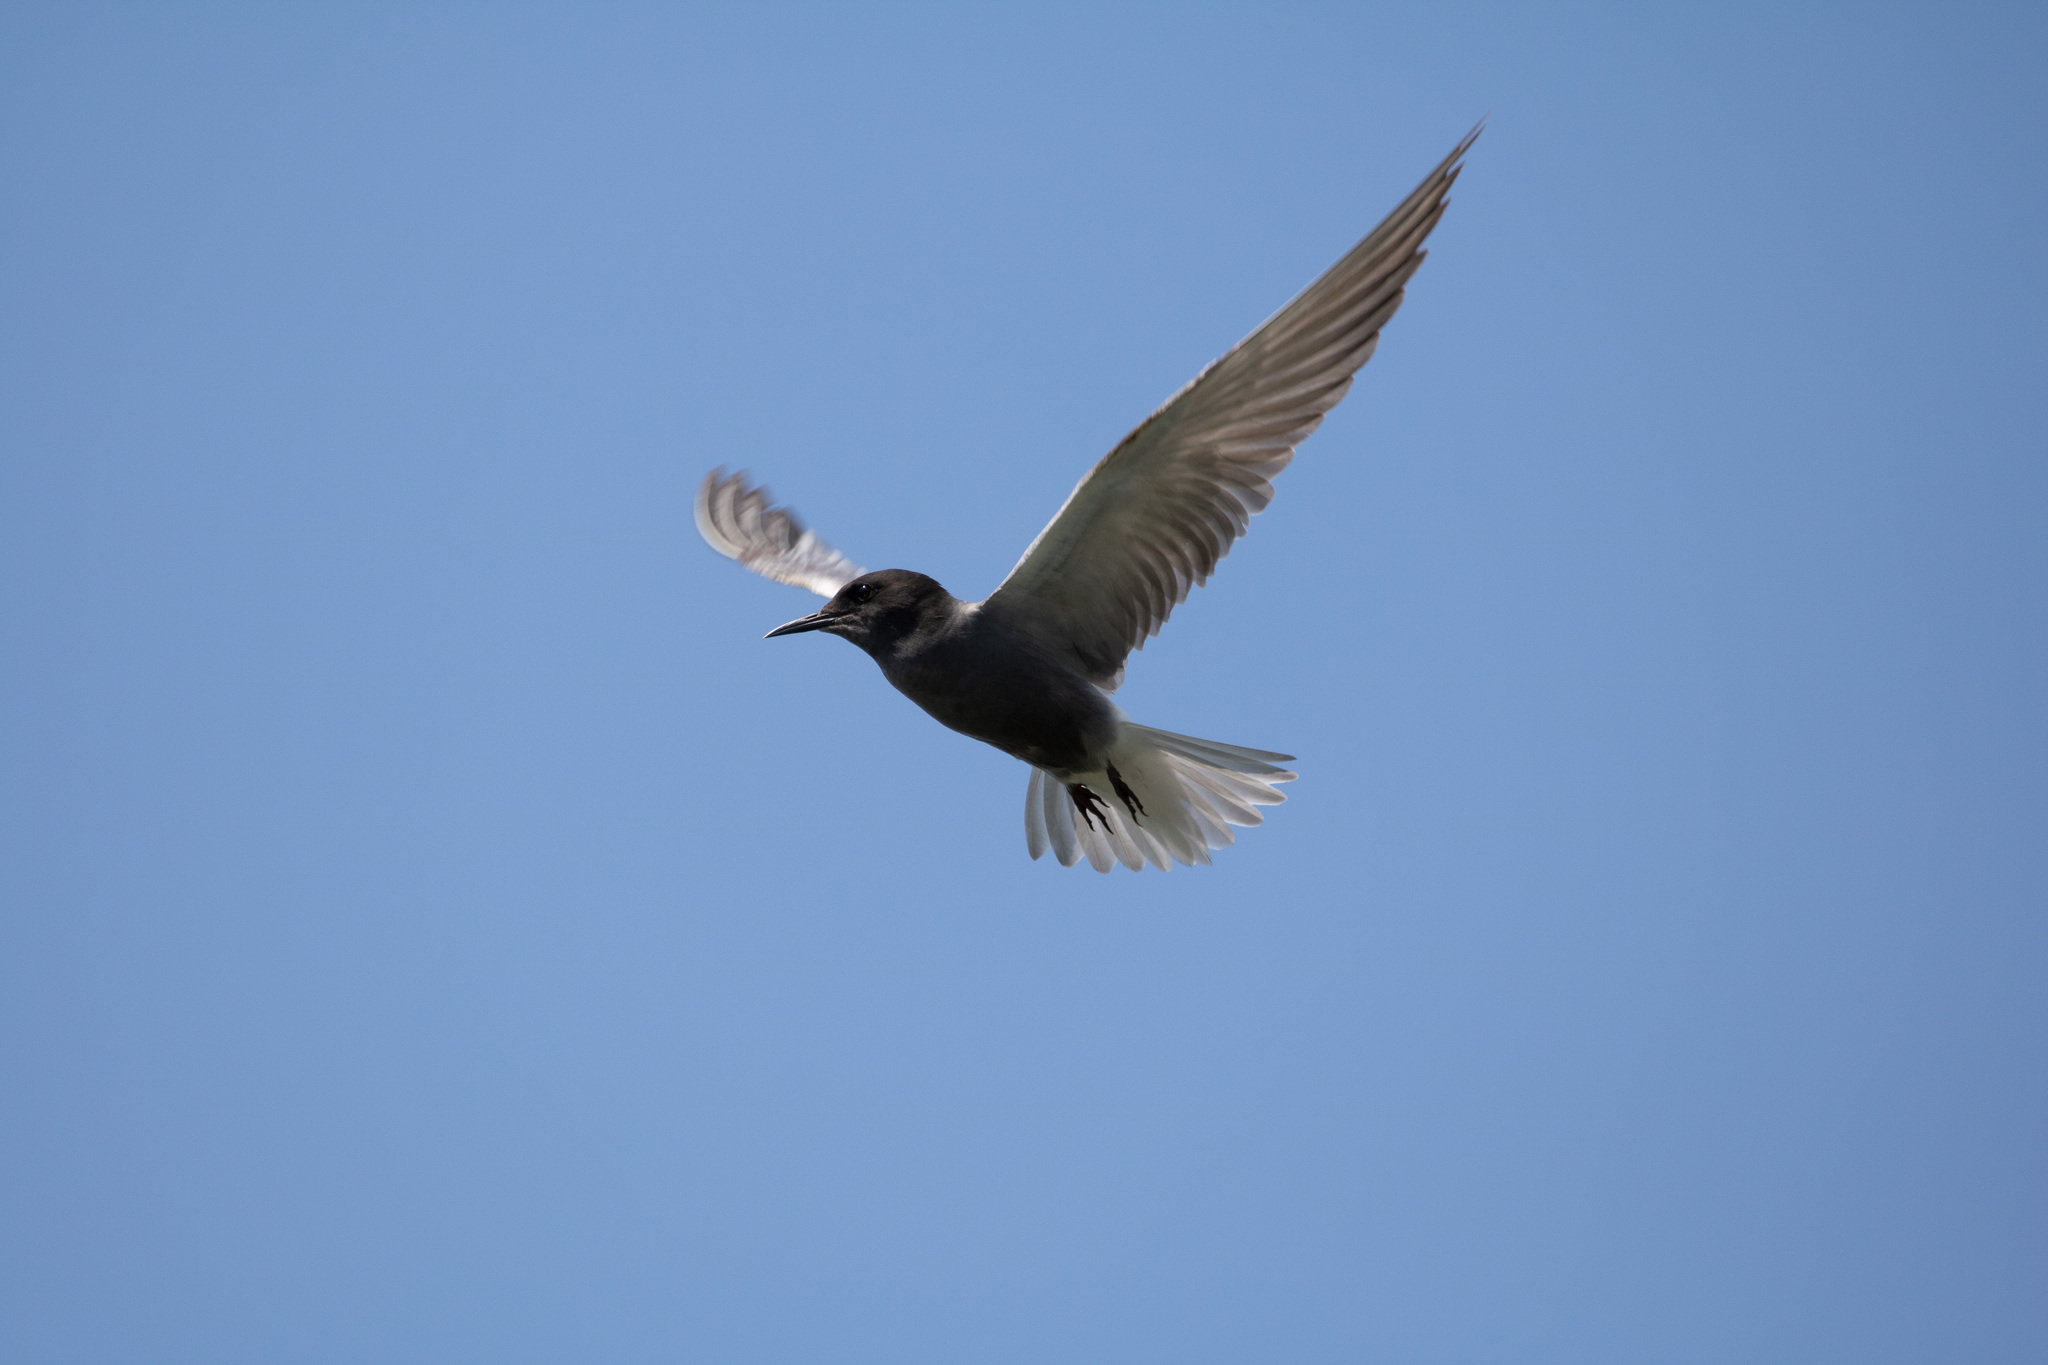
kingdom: Animalia
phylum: Chordata
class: Aves
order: Charadriiformes
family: Laridae
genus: Chlidonias
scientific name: Chlidonias niger
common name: Black tern
